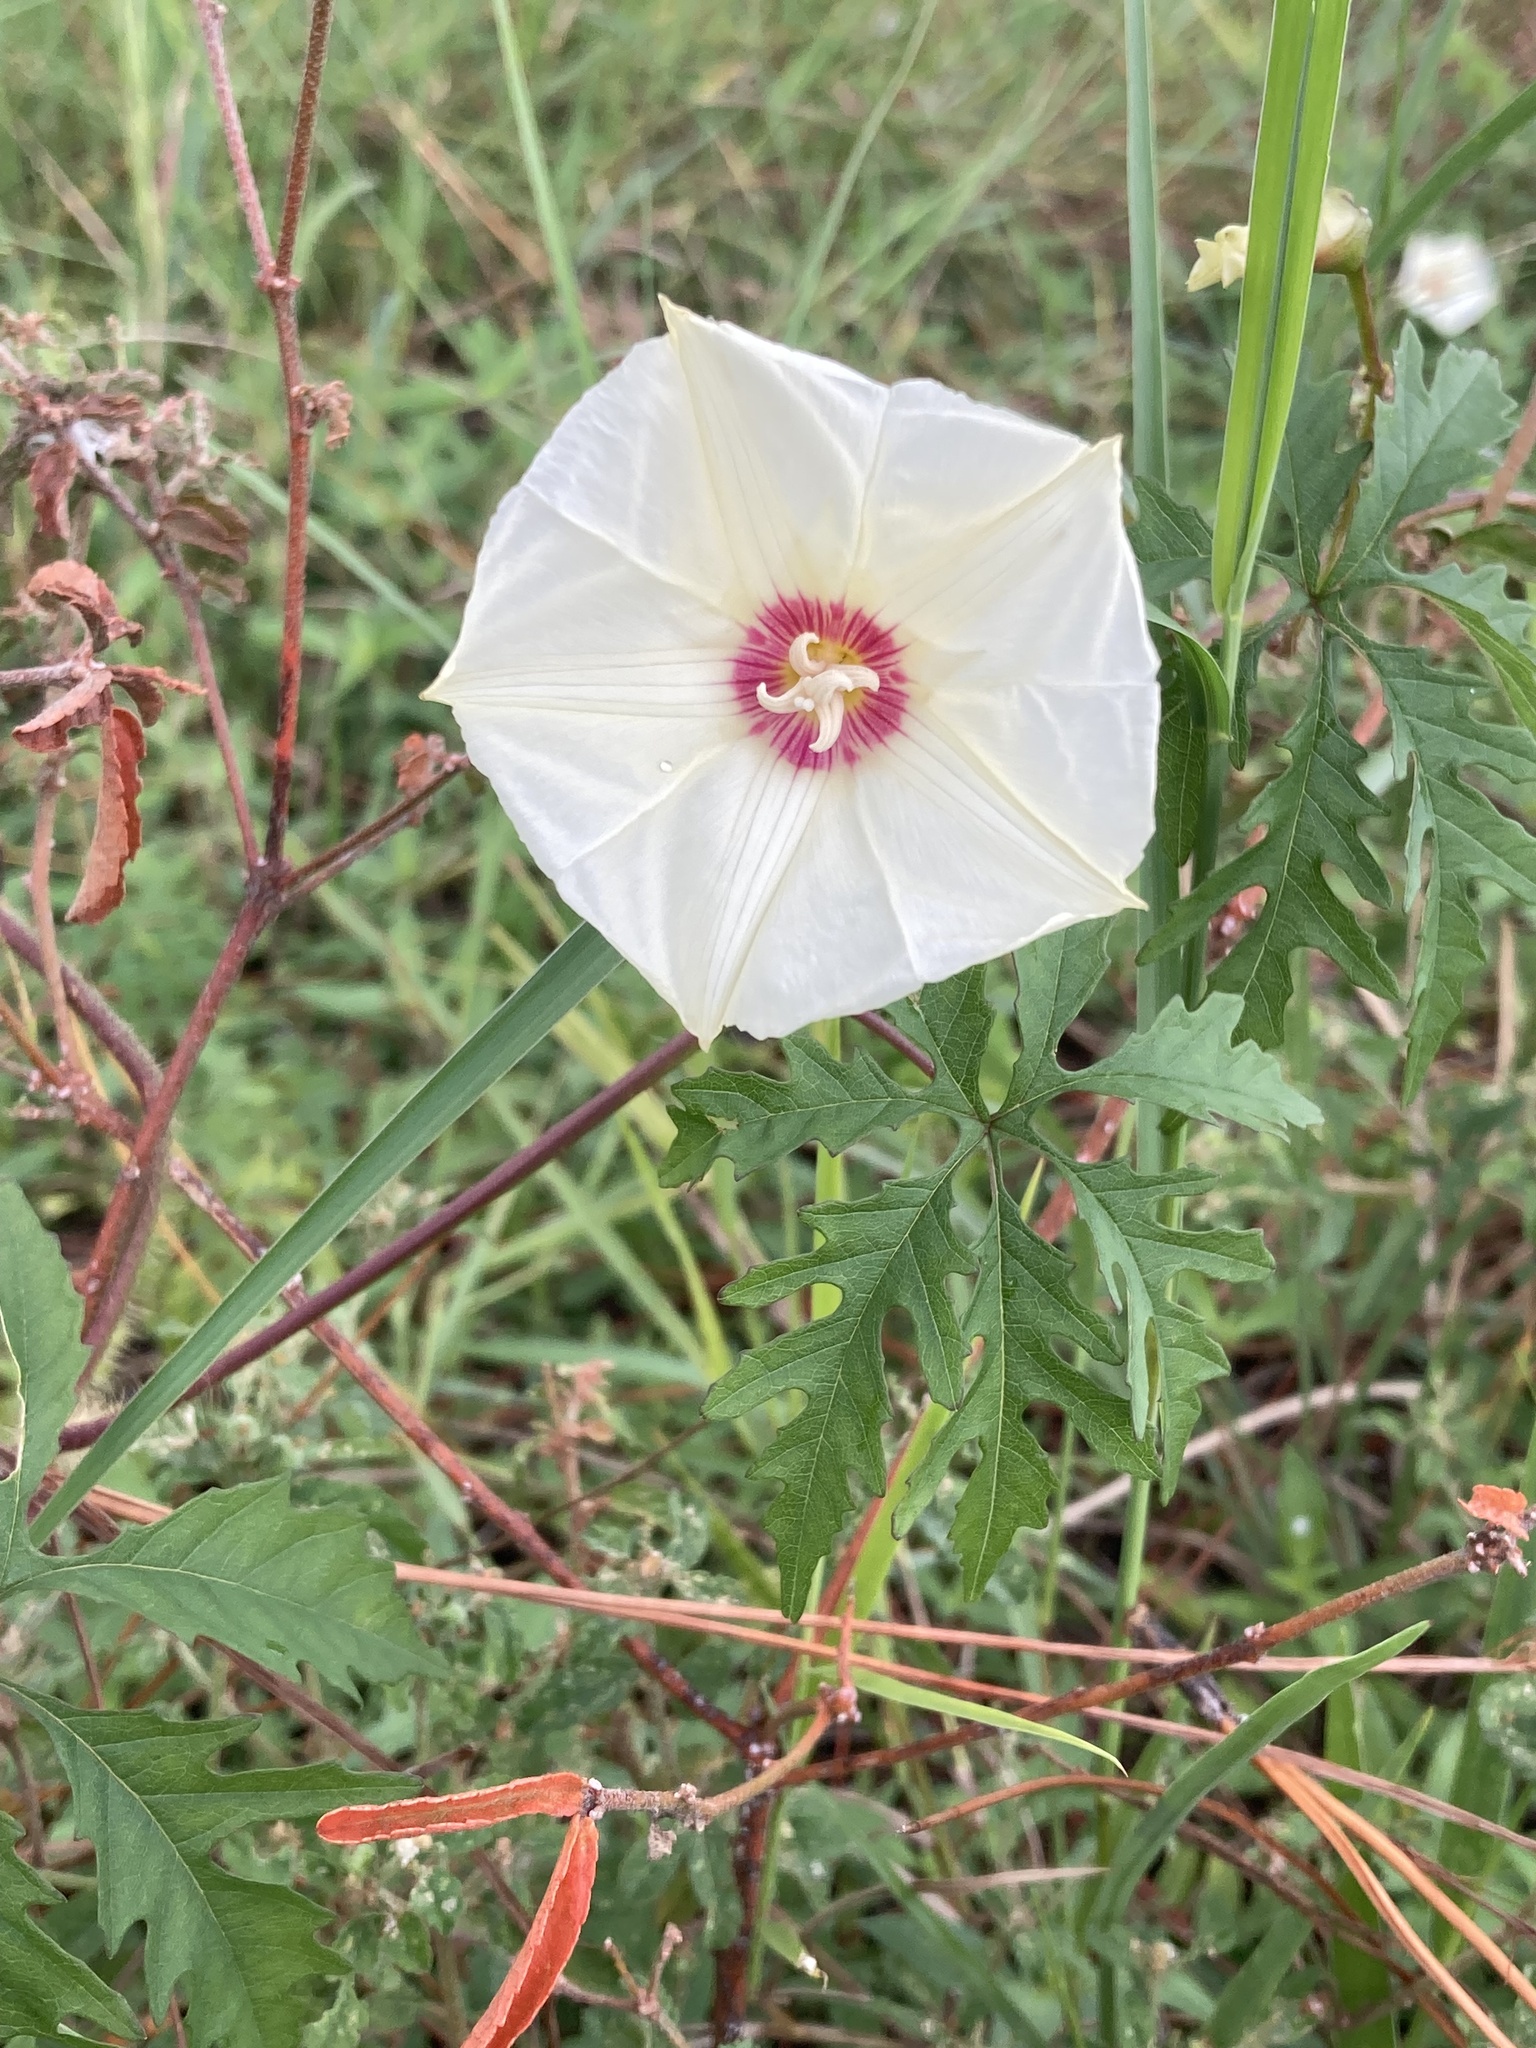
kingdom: Plantae
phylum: Tracheophyta
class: Magnoliopsida
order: Solanales
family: Convolvulaceae
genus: Distimake
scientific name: Distimake dissectus
